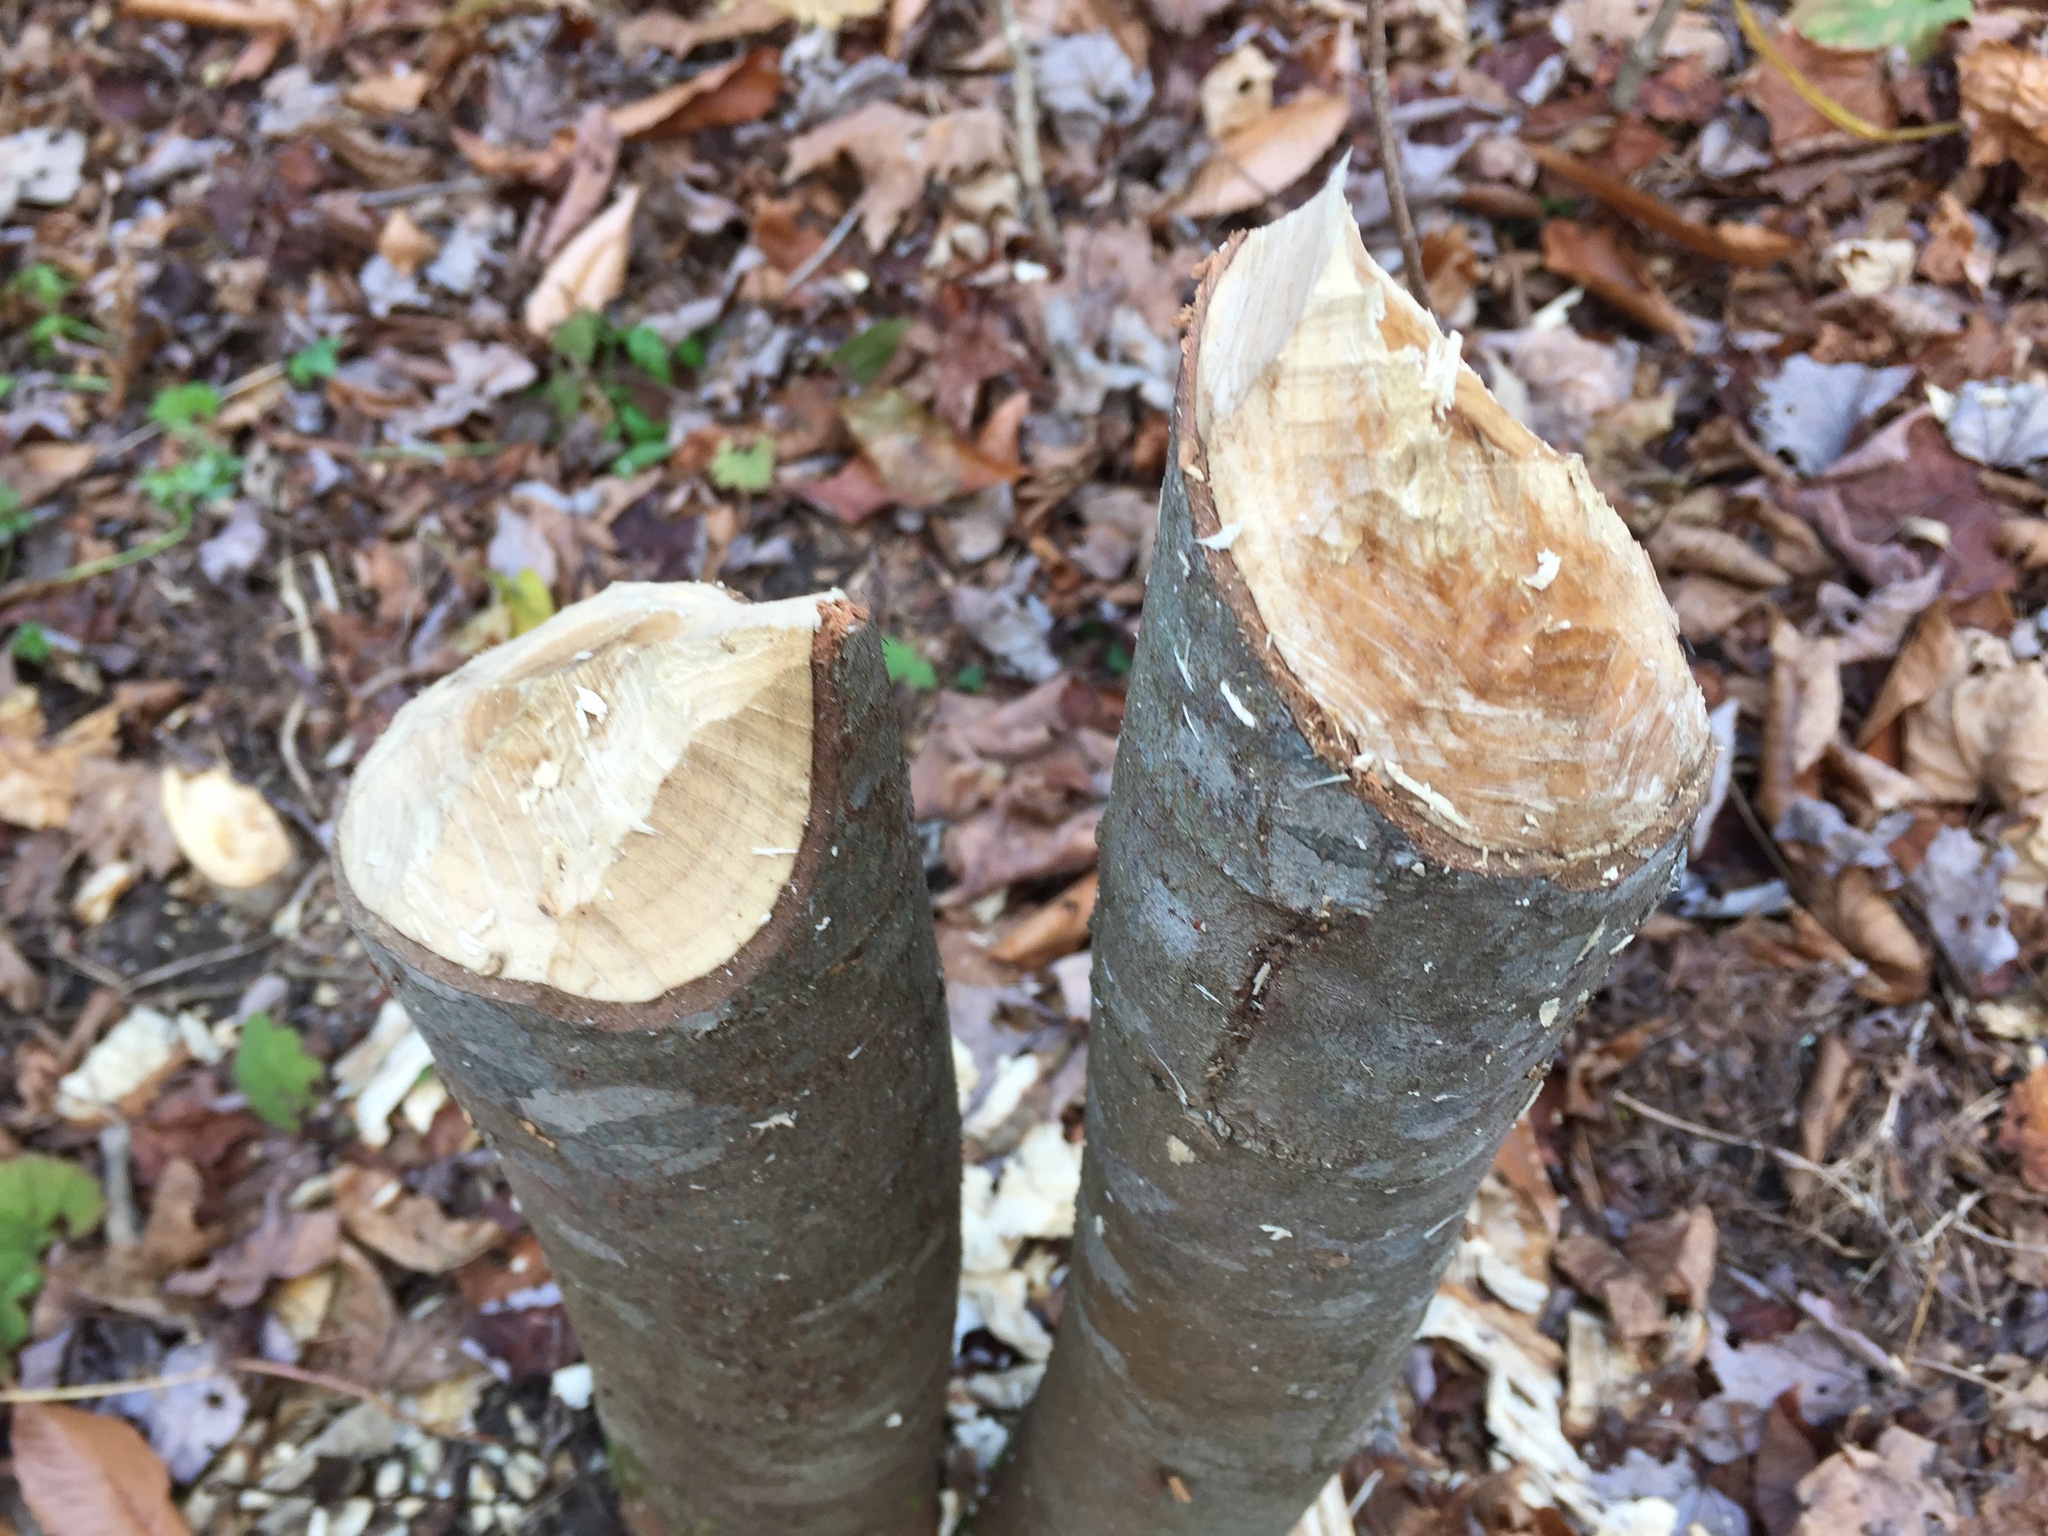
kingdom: Animalia
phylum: Chordata
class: Mammalia
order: Rodentia
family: Castoridae
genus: Castor
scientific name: Castor canadensis
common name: American beaver
